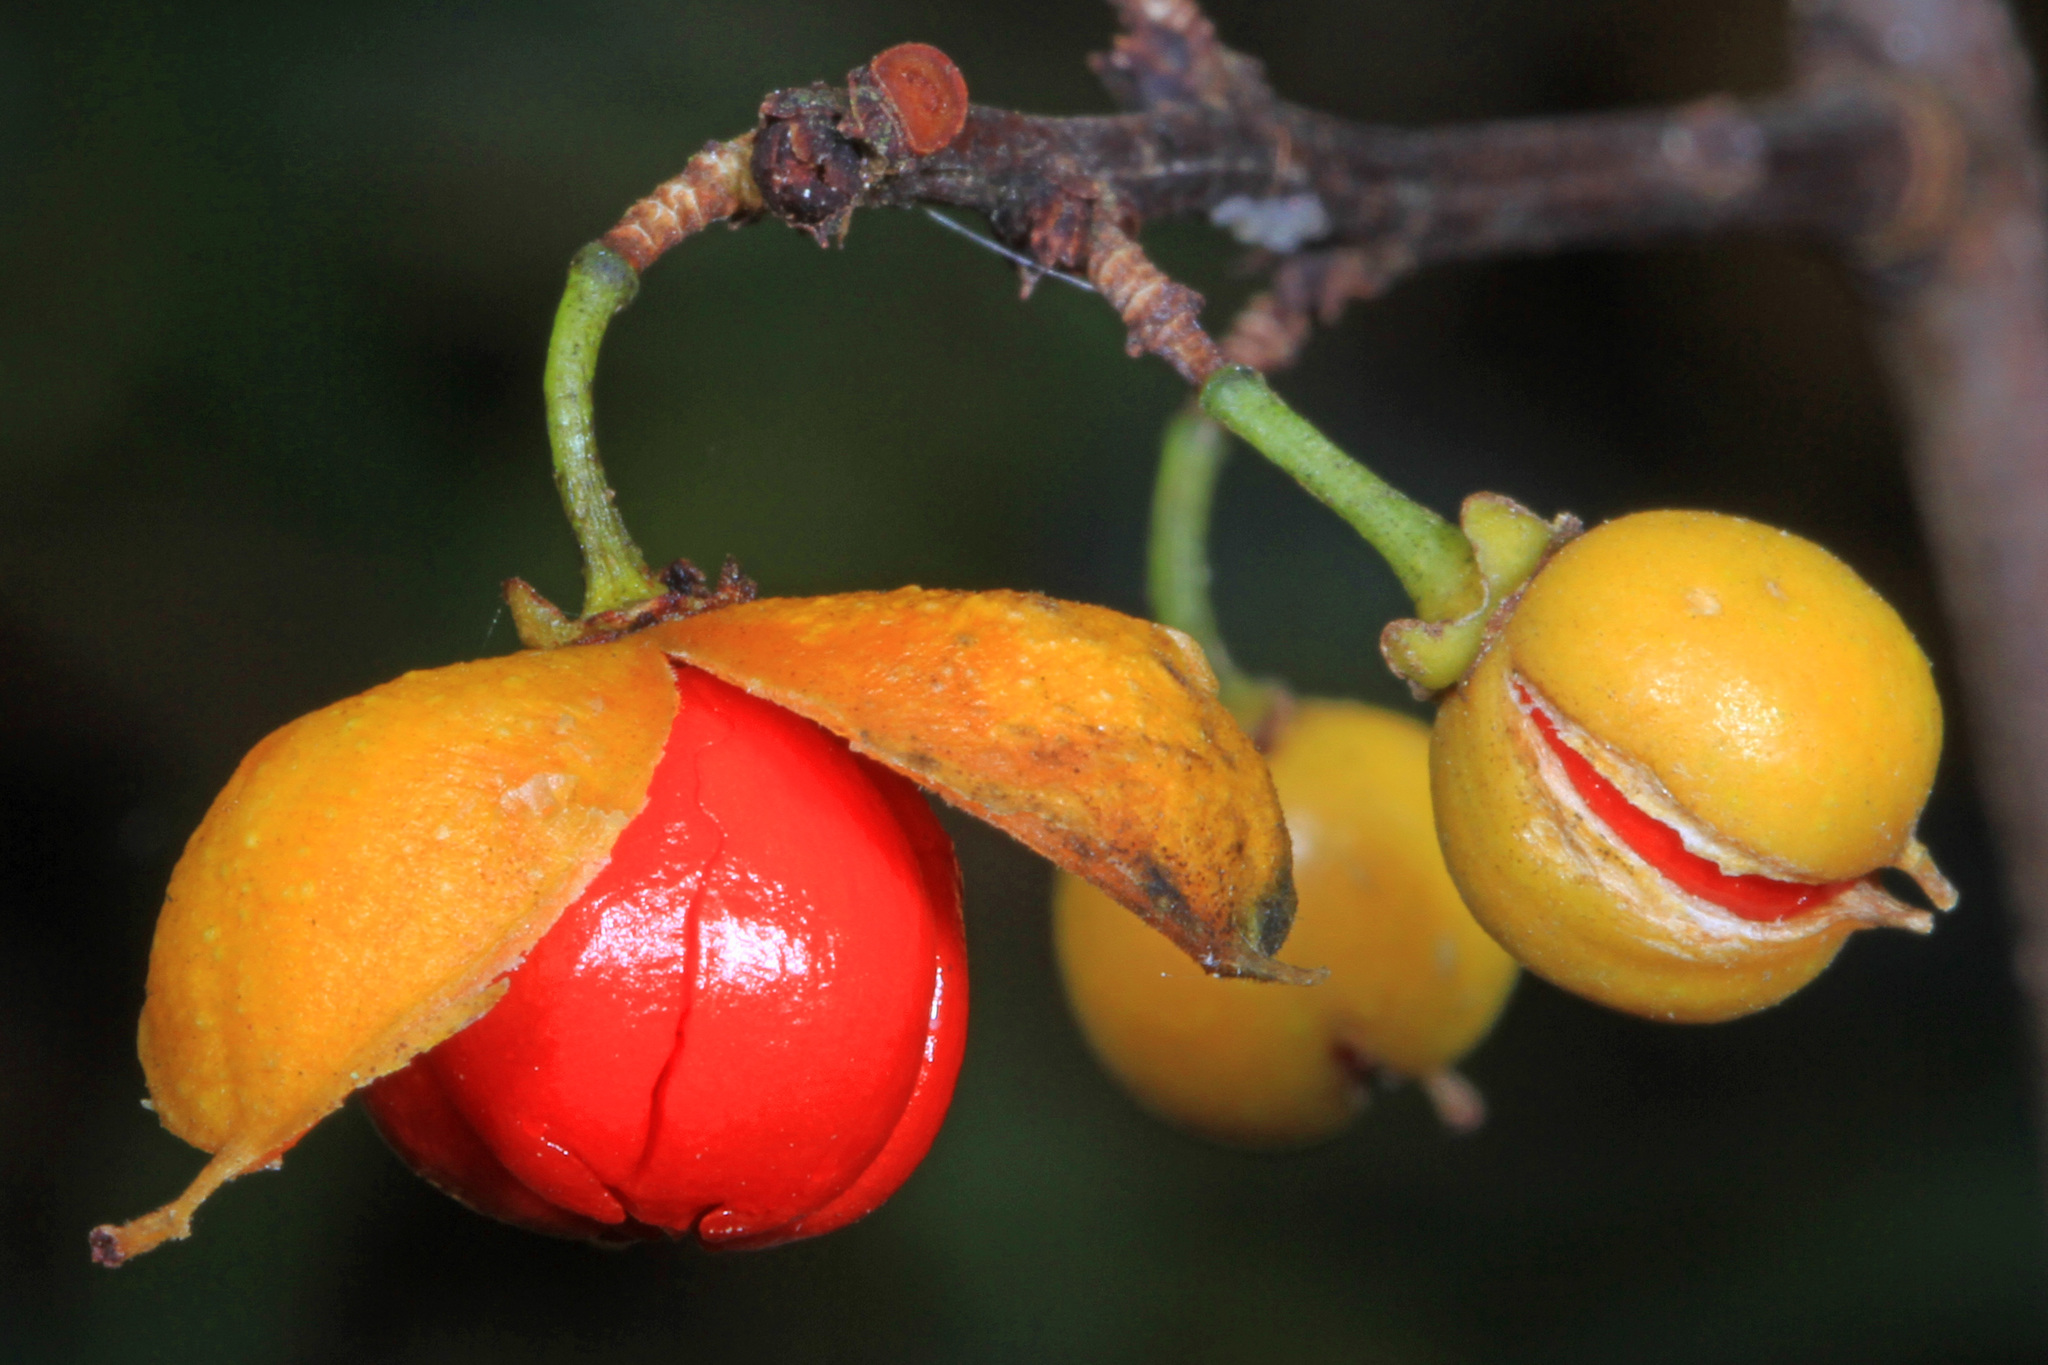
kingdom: Plantae
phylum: Tracheophyta
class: Magnoliopsida
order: Celastrales
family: Celastraceae
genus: Celastrus
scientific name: Celastrus orbiculatus
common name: Oriental bittersweet
